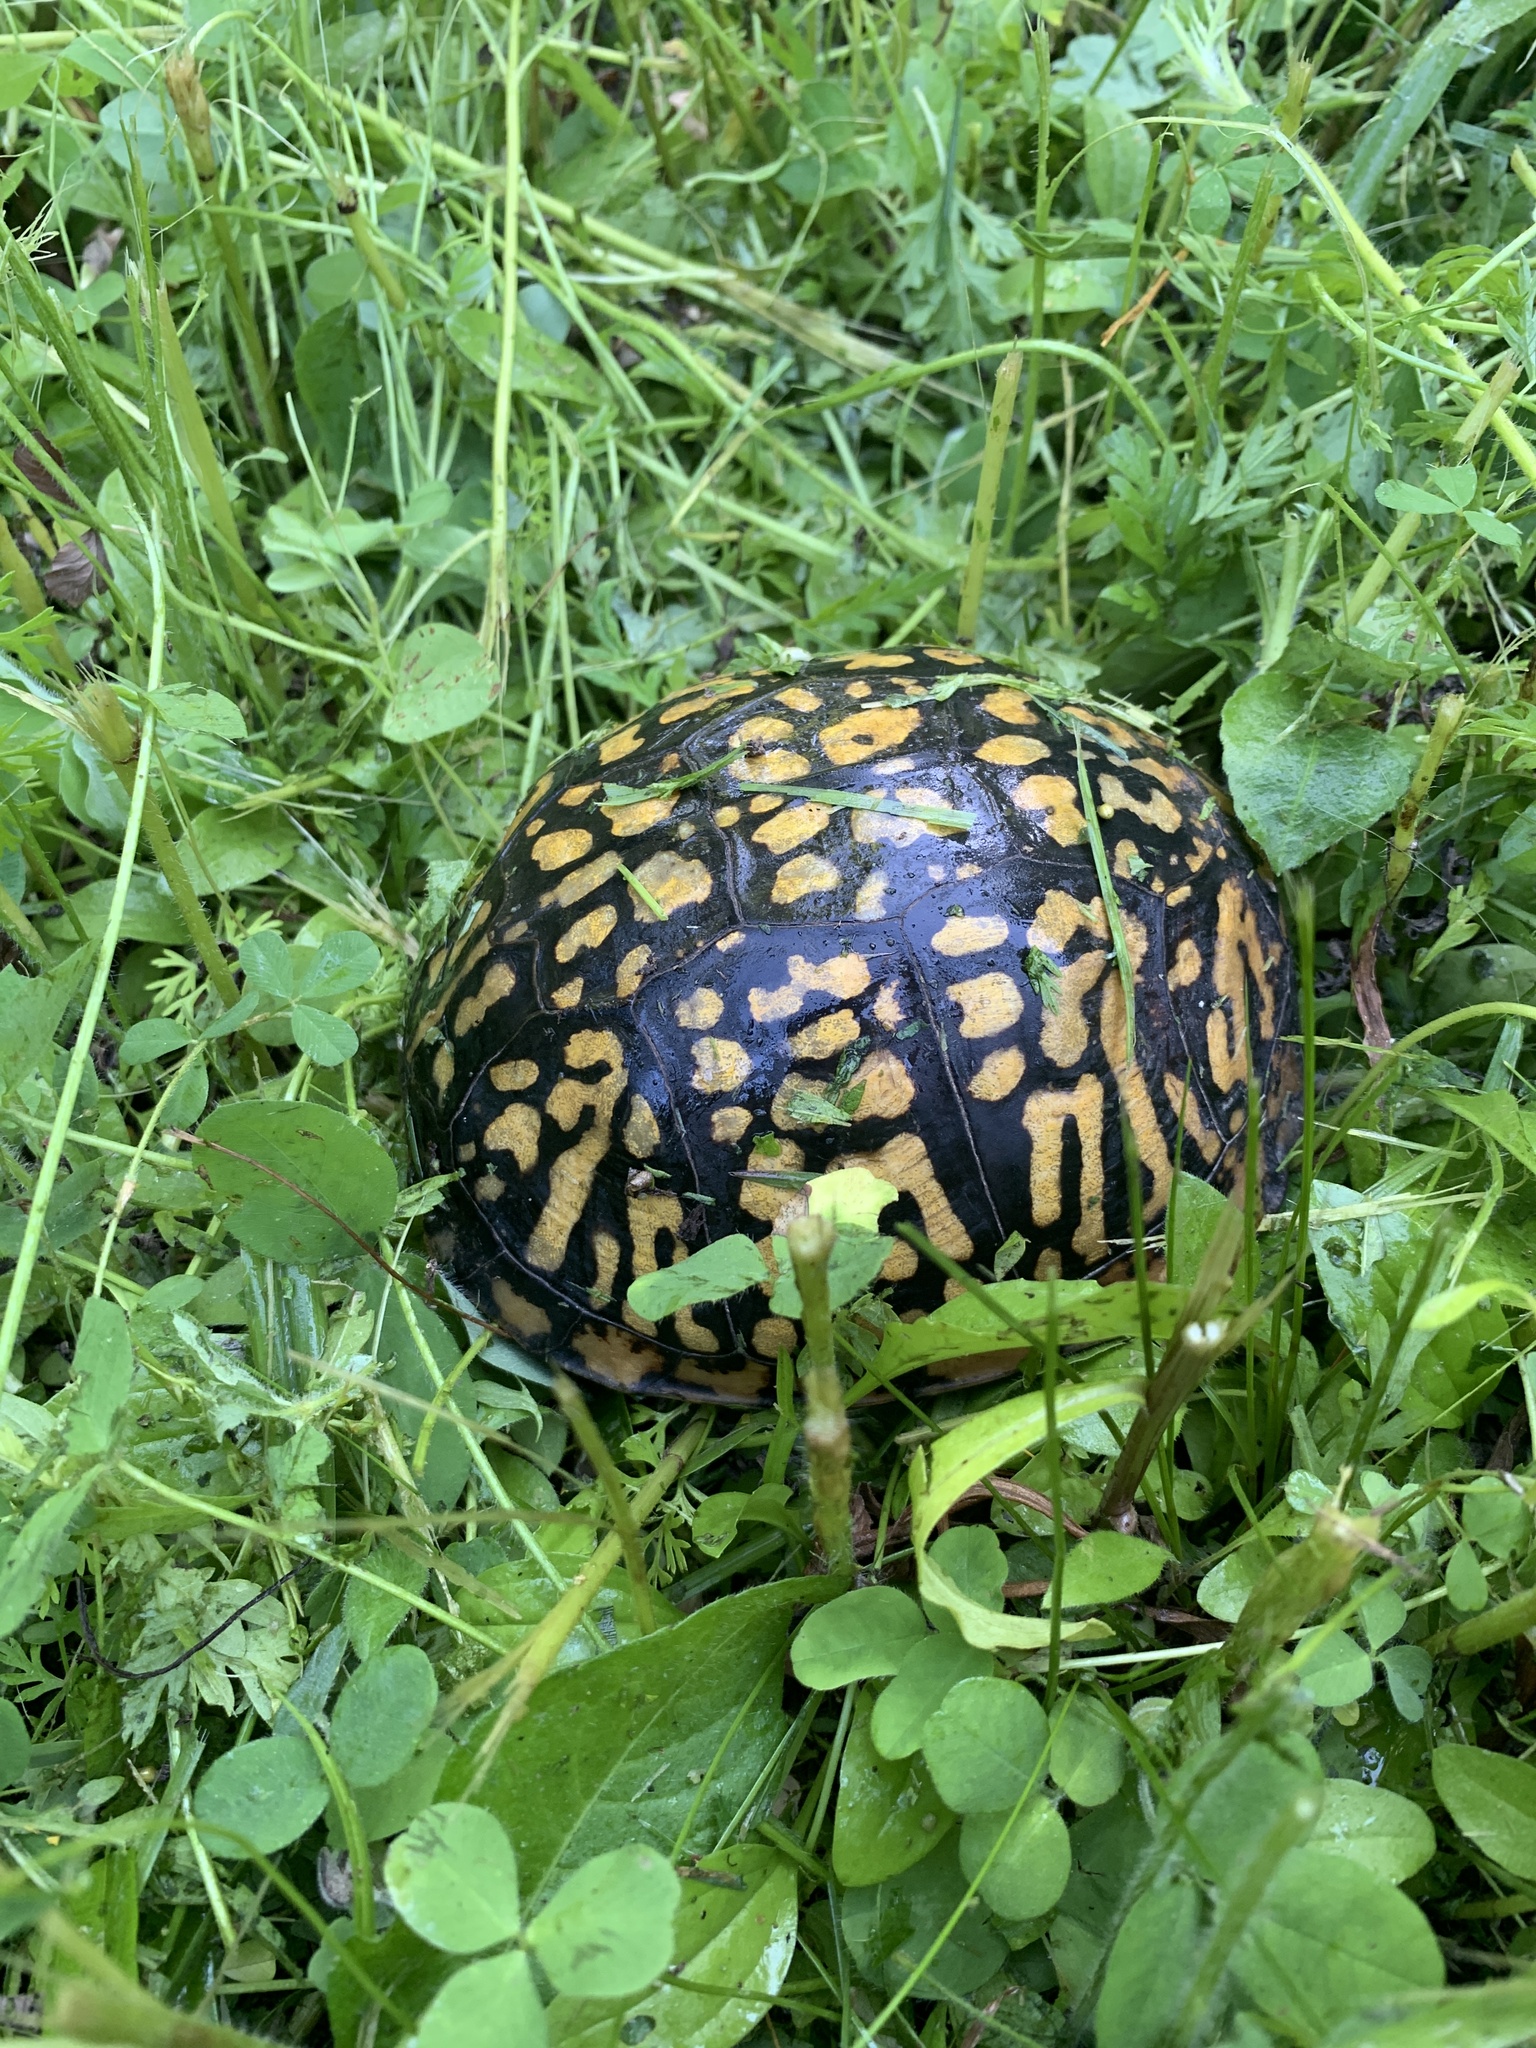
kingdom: Animalia
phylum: Chordata
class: Testudines
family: Emydidae
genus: Terrapene
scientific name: Terrapene carolina
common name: Common box turtle
